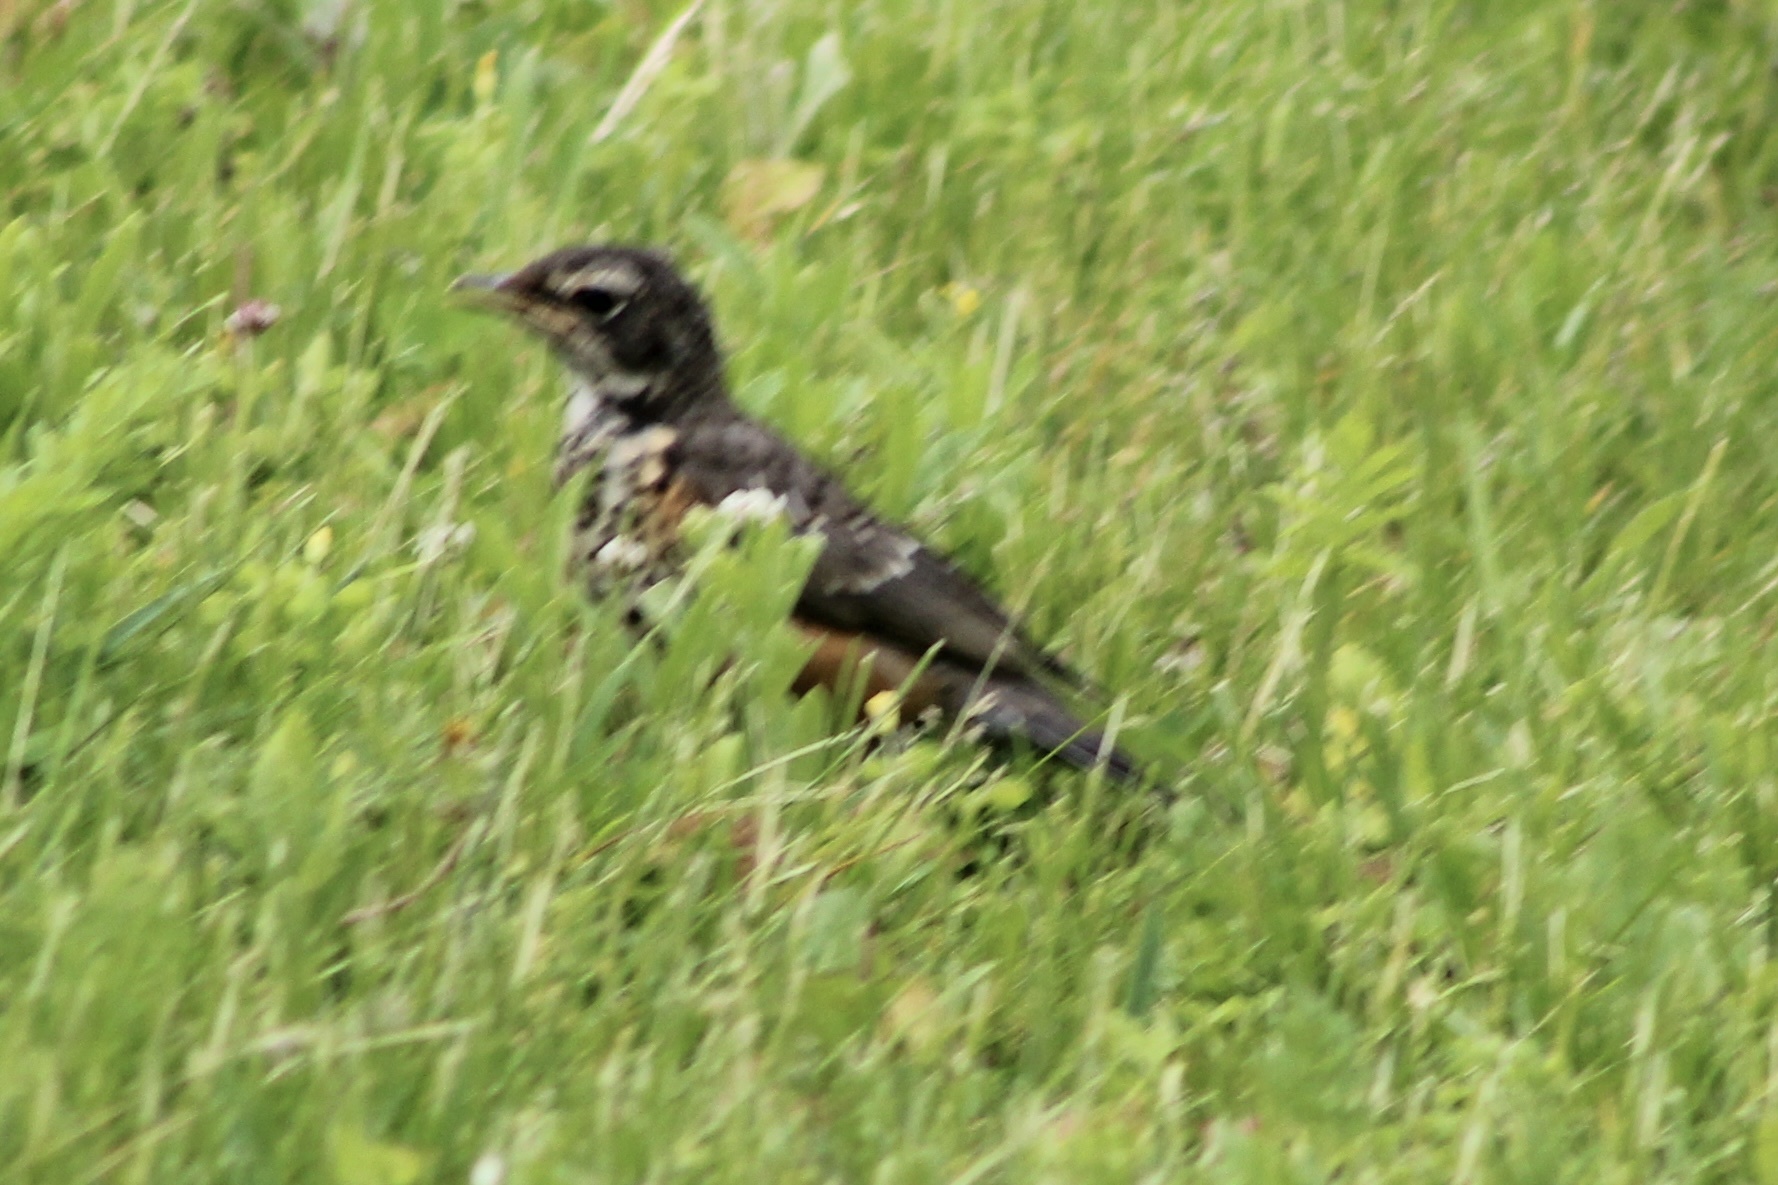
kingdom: Animalia
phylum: Chordata
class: Aves
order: Passeriformes
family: Turdidae
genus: Turdus
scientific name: Turdus migratorius
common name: American robin
